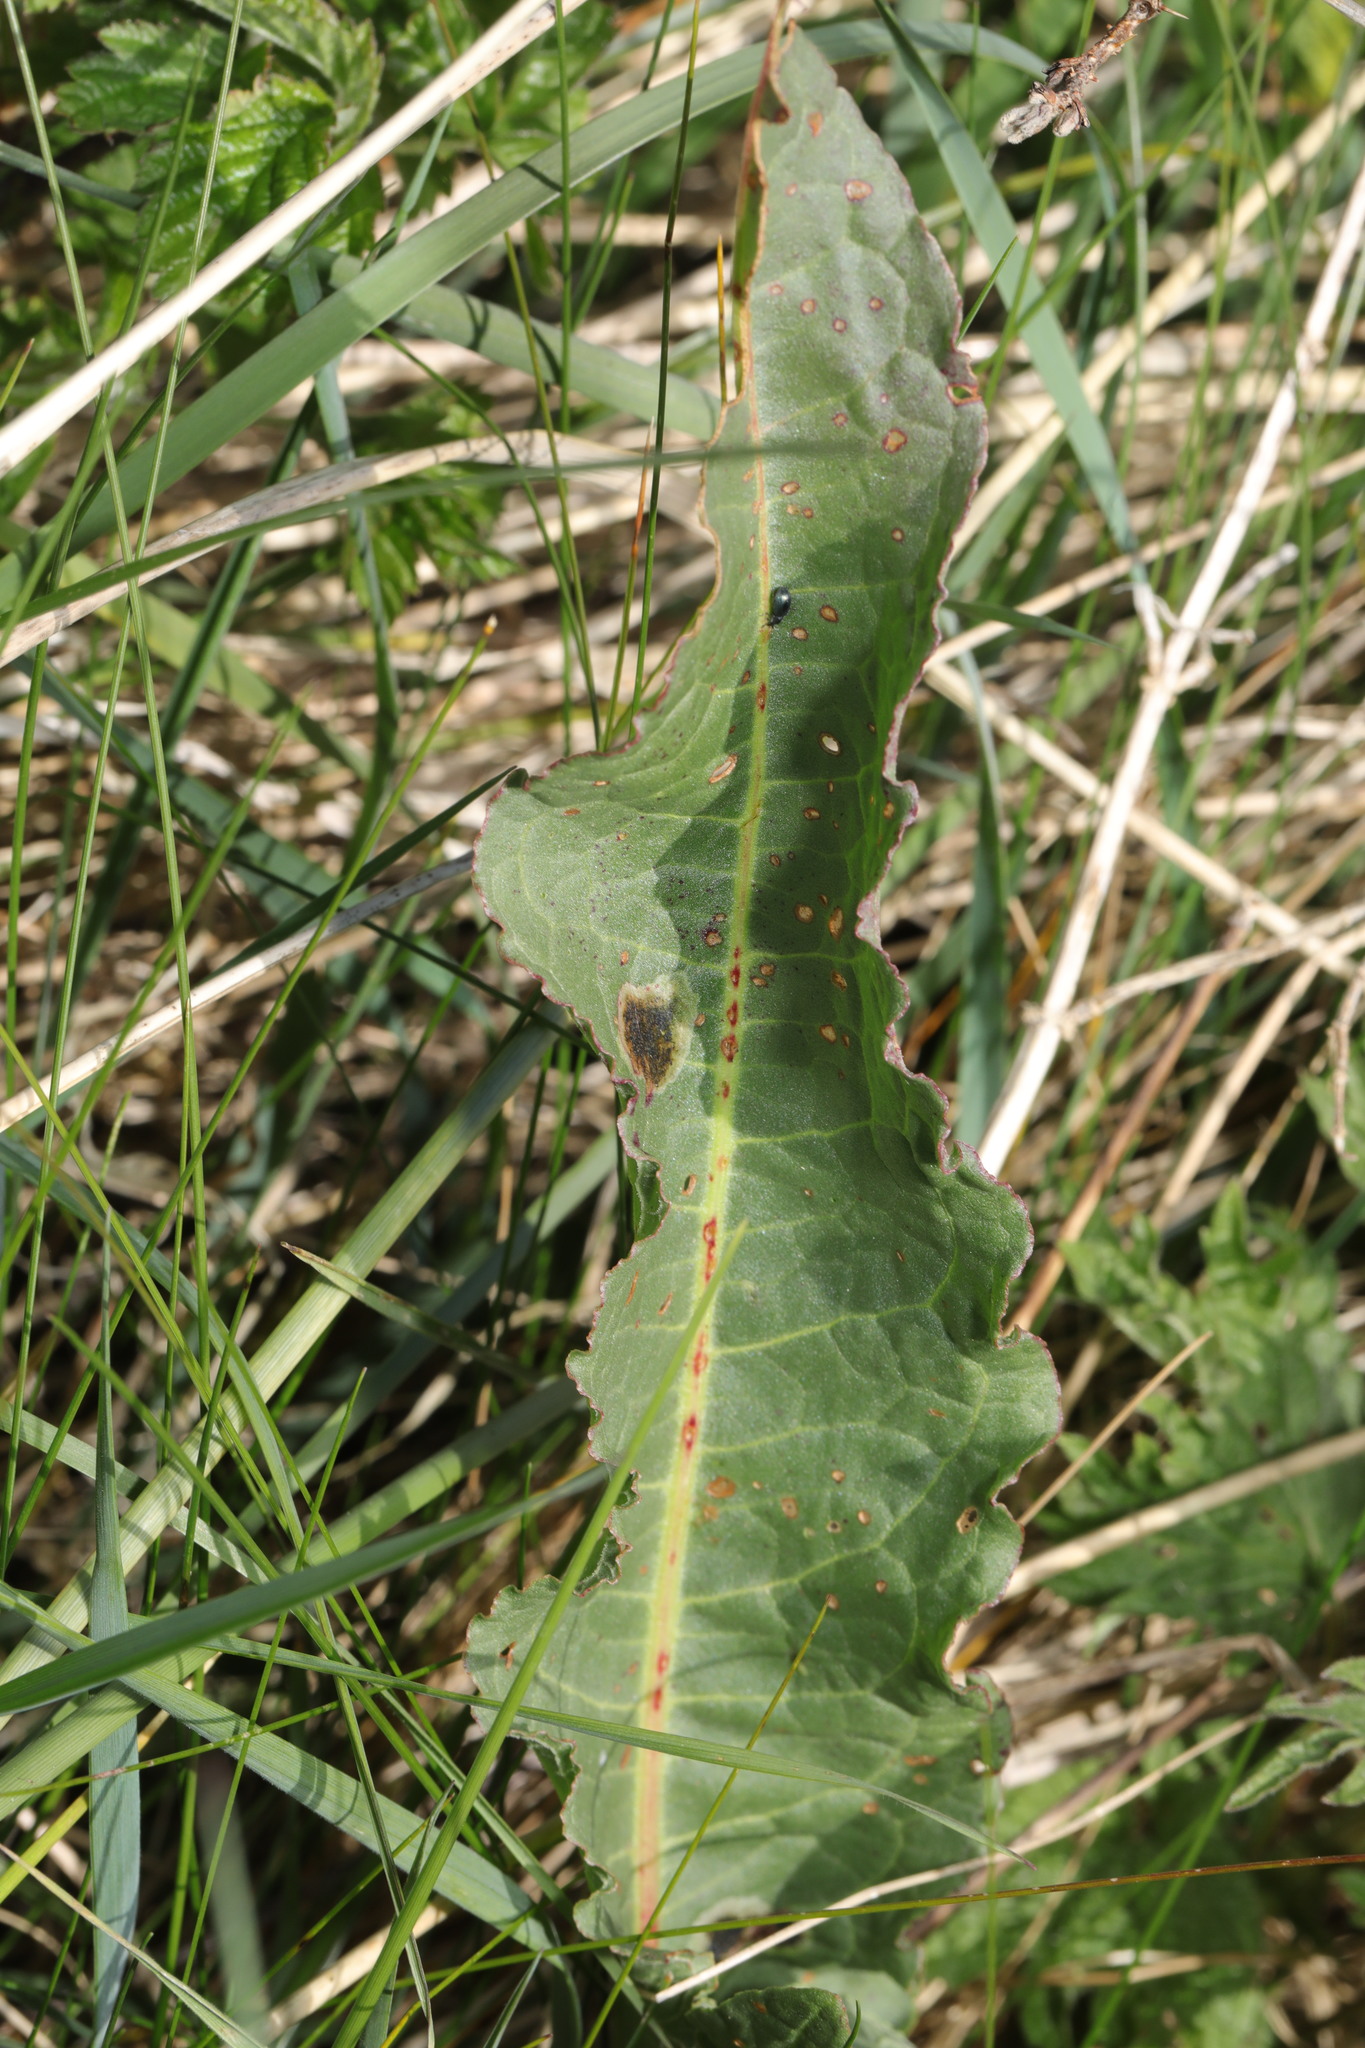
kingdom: Plantae
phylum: Tracheophyta
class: Magnoliopsida
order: Caryophyllales
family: Polygonaceae
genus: Rumex
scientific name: Rumex crispus
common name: Curled dock
